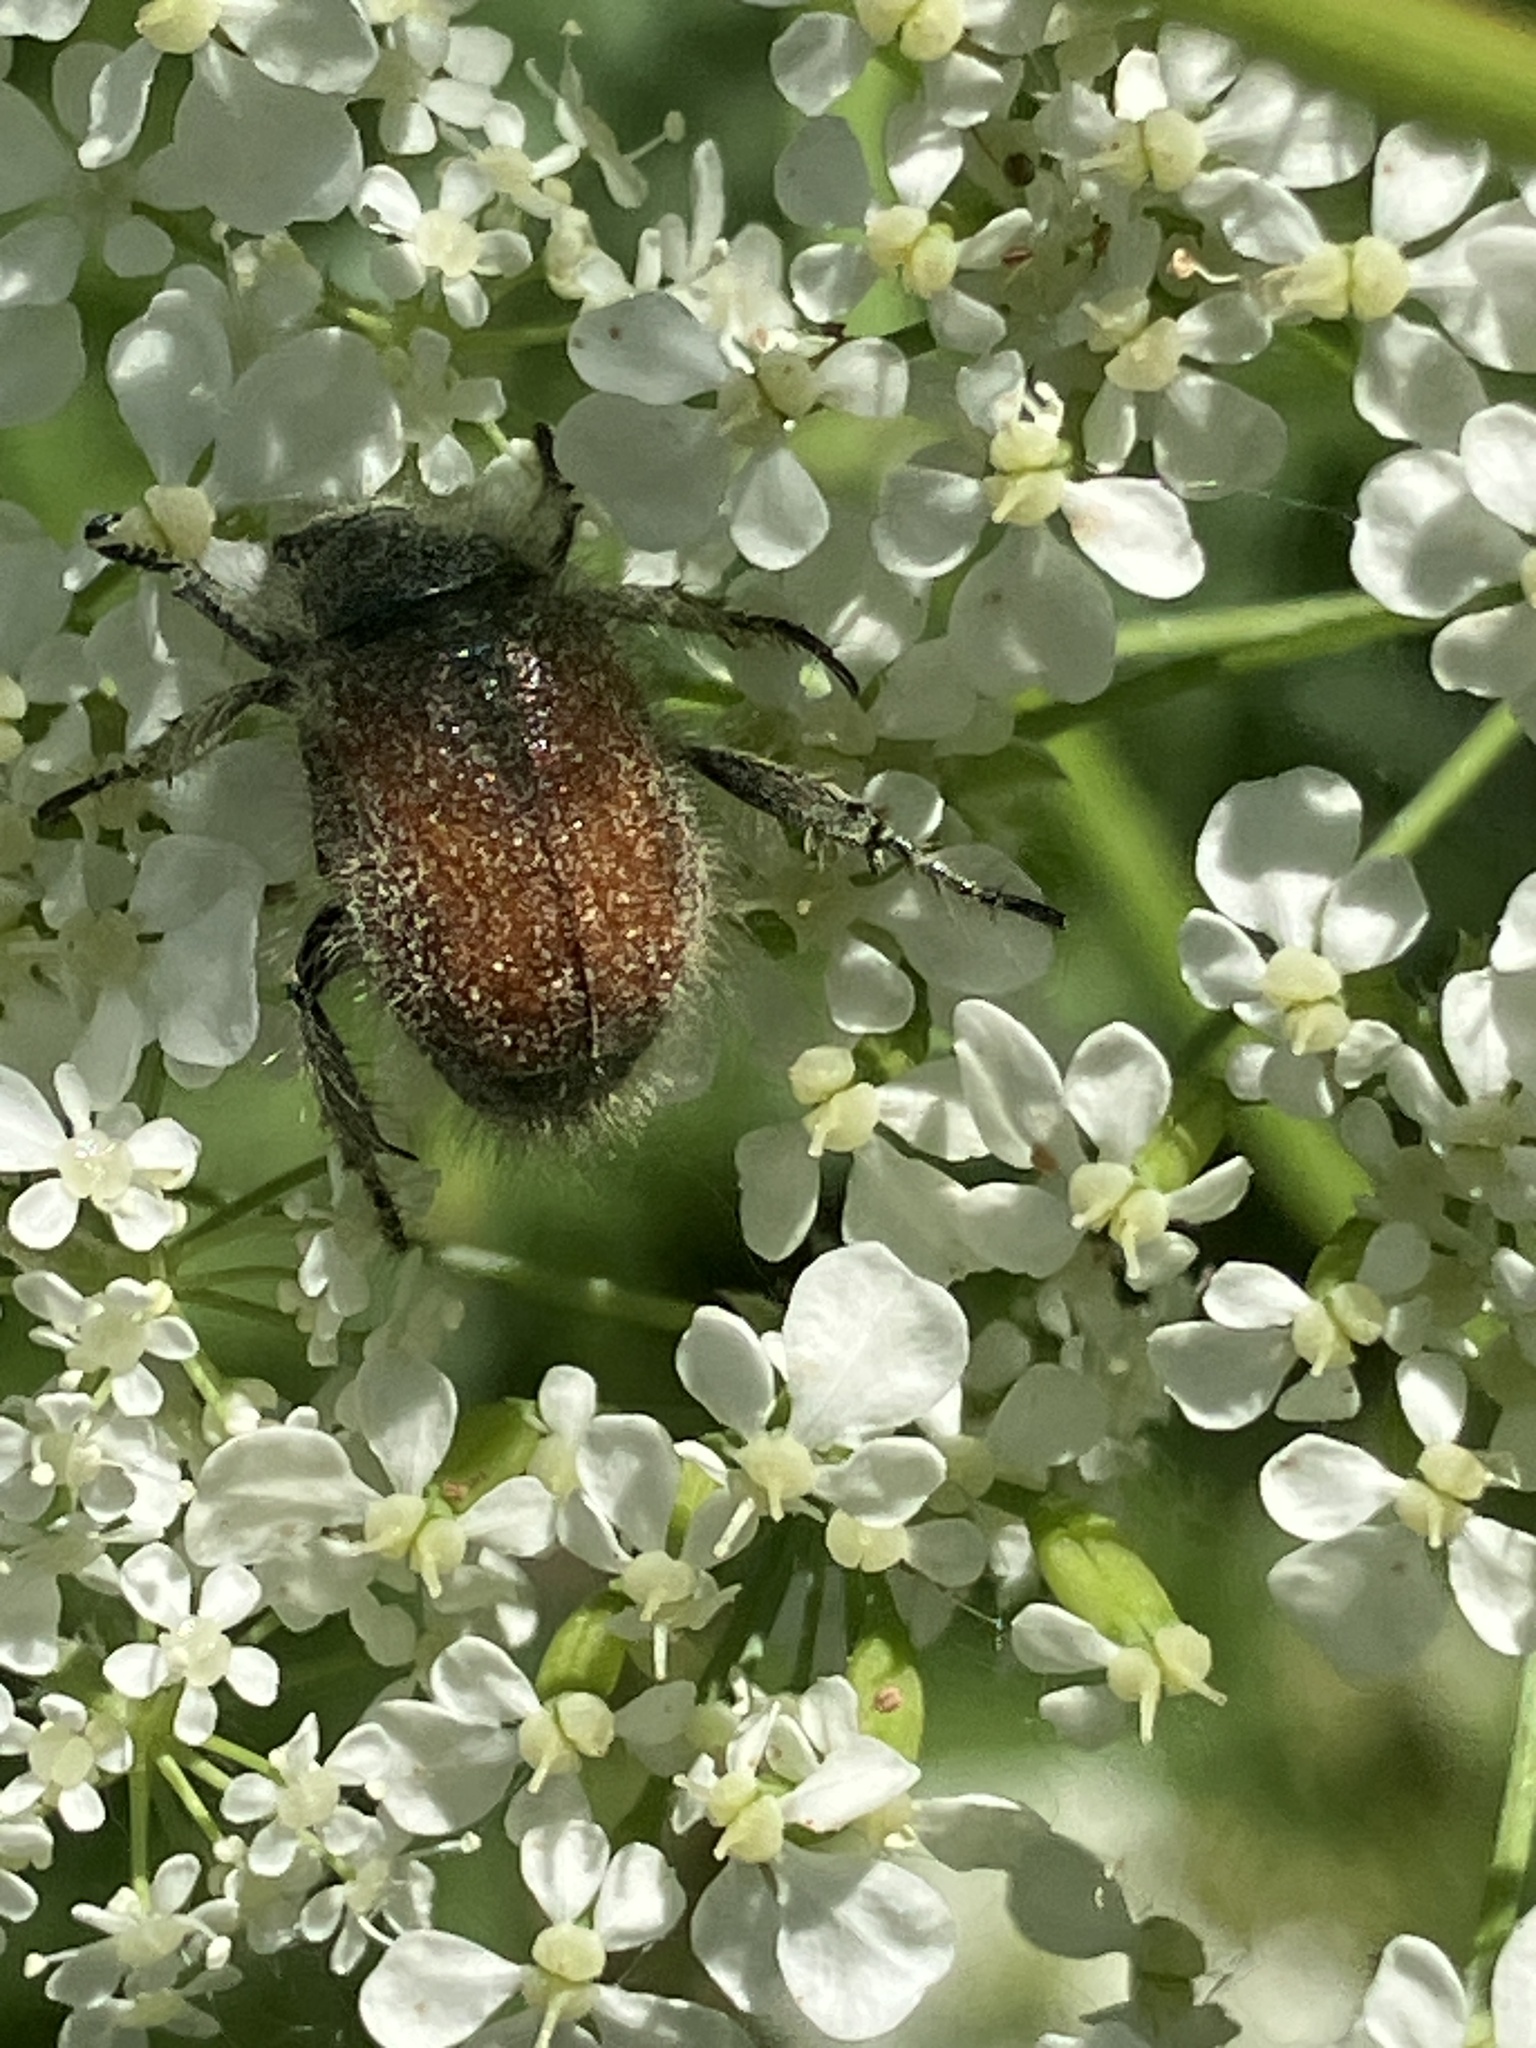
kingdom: Animalia
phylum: Arthropoda
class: Insecta
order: Coleoptera
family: Scarabaeidae
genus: Phyllopertha
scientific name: Phyllopertha horticola
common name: Garden chafer
